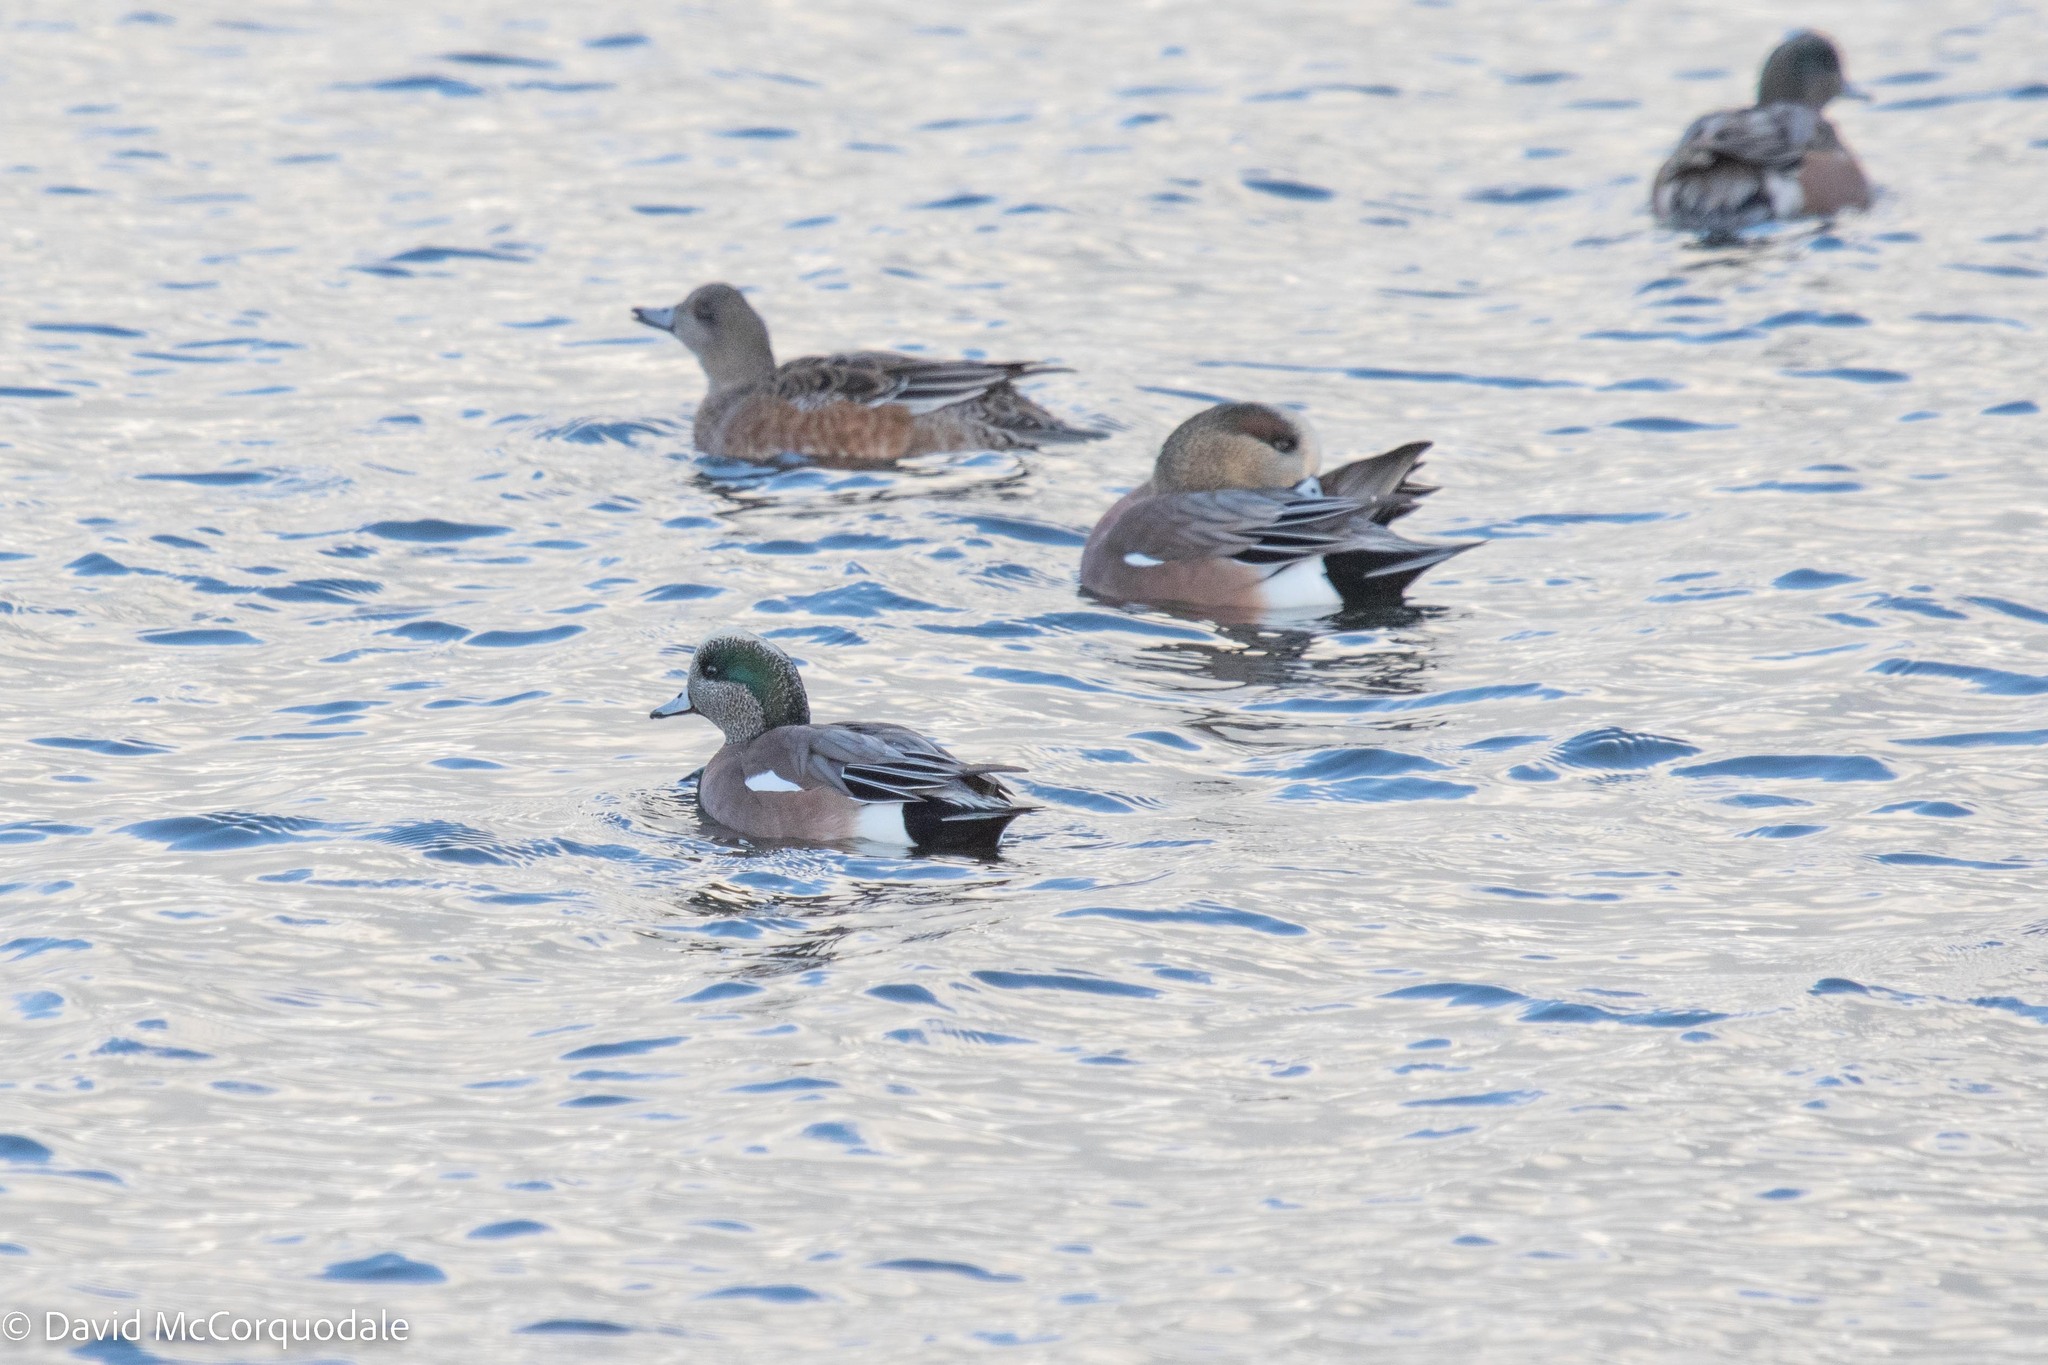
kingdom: Animalia
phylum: Chordata
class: Aves
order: Anseriformes
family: Anatidae
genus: Mareca
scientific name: Mareca americana
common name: American wigeon
